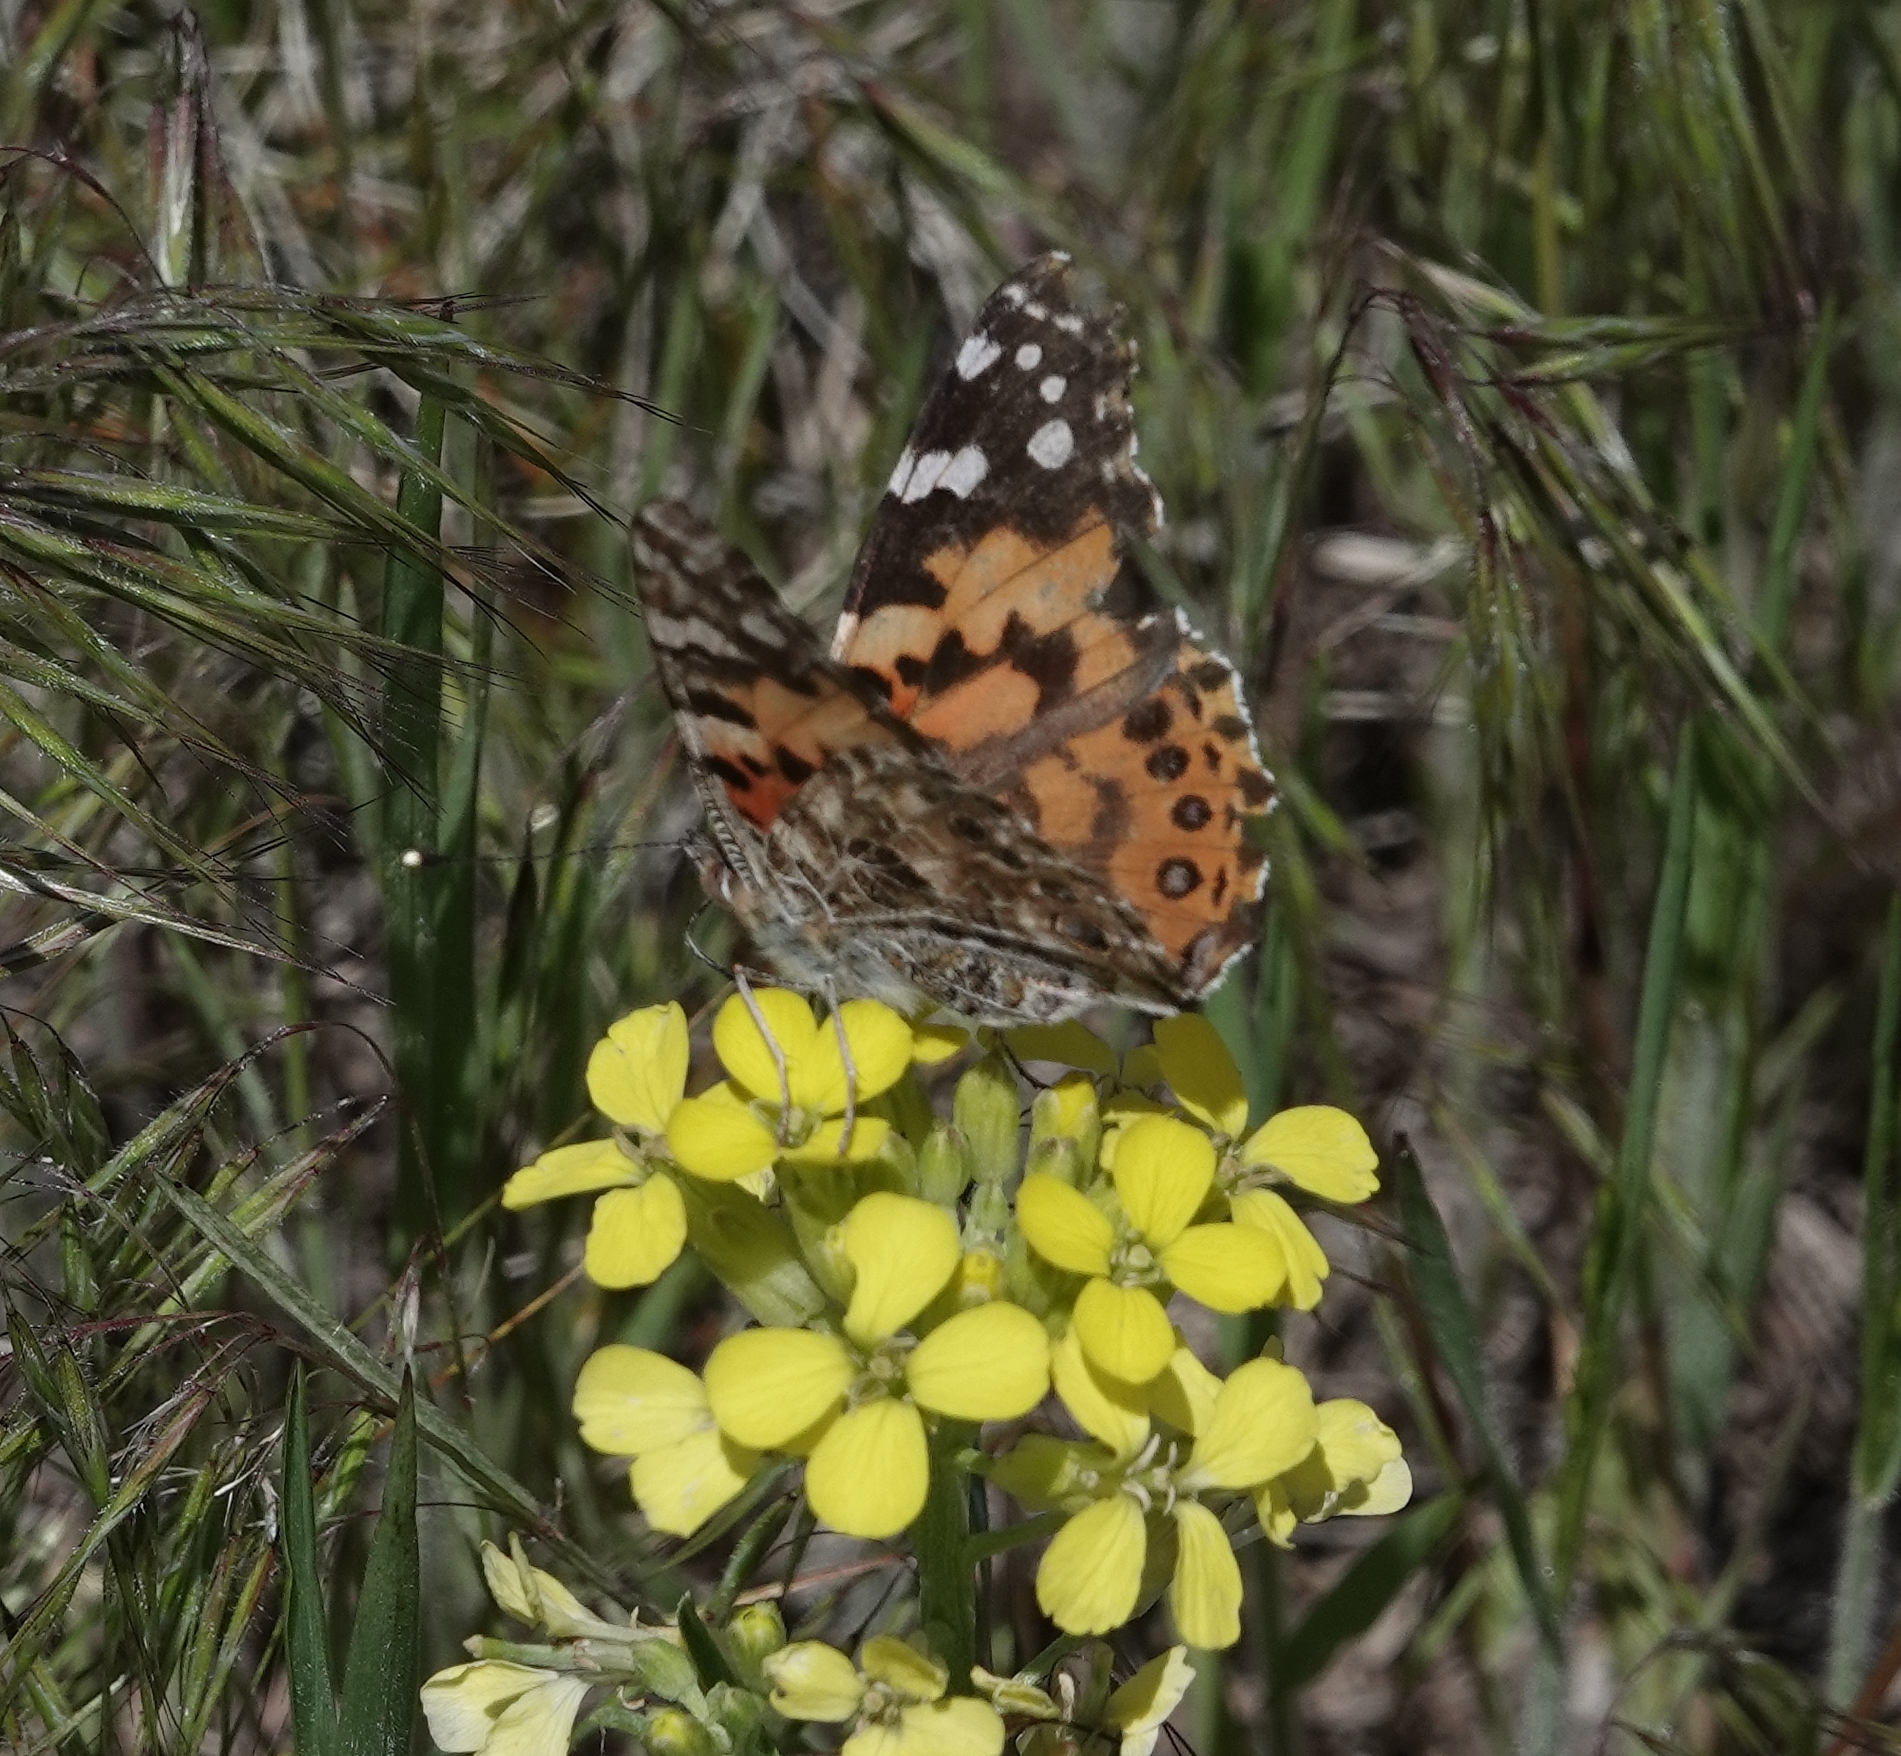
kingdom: Animalia
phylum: Arthropoda
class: Insecta
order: Lepidoptera
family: Nymphalidae
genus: Vanessa
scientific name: Vanessa cardui
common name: Painted lady
